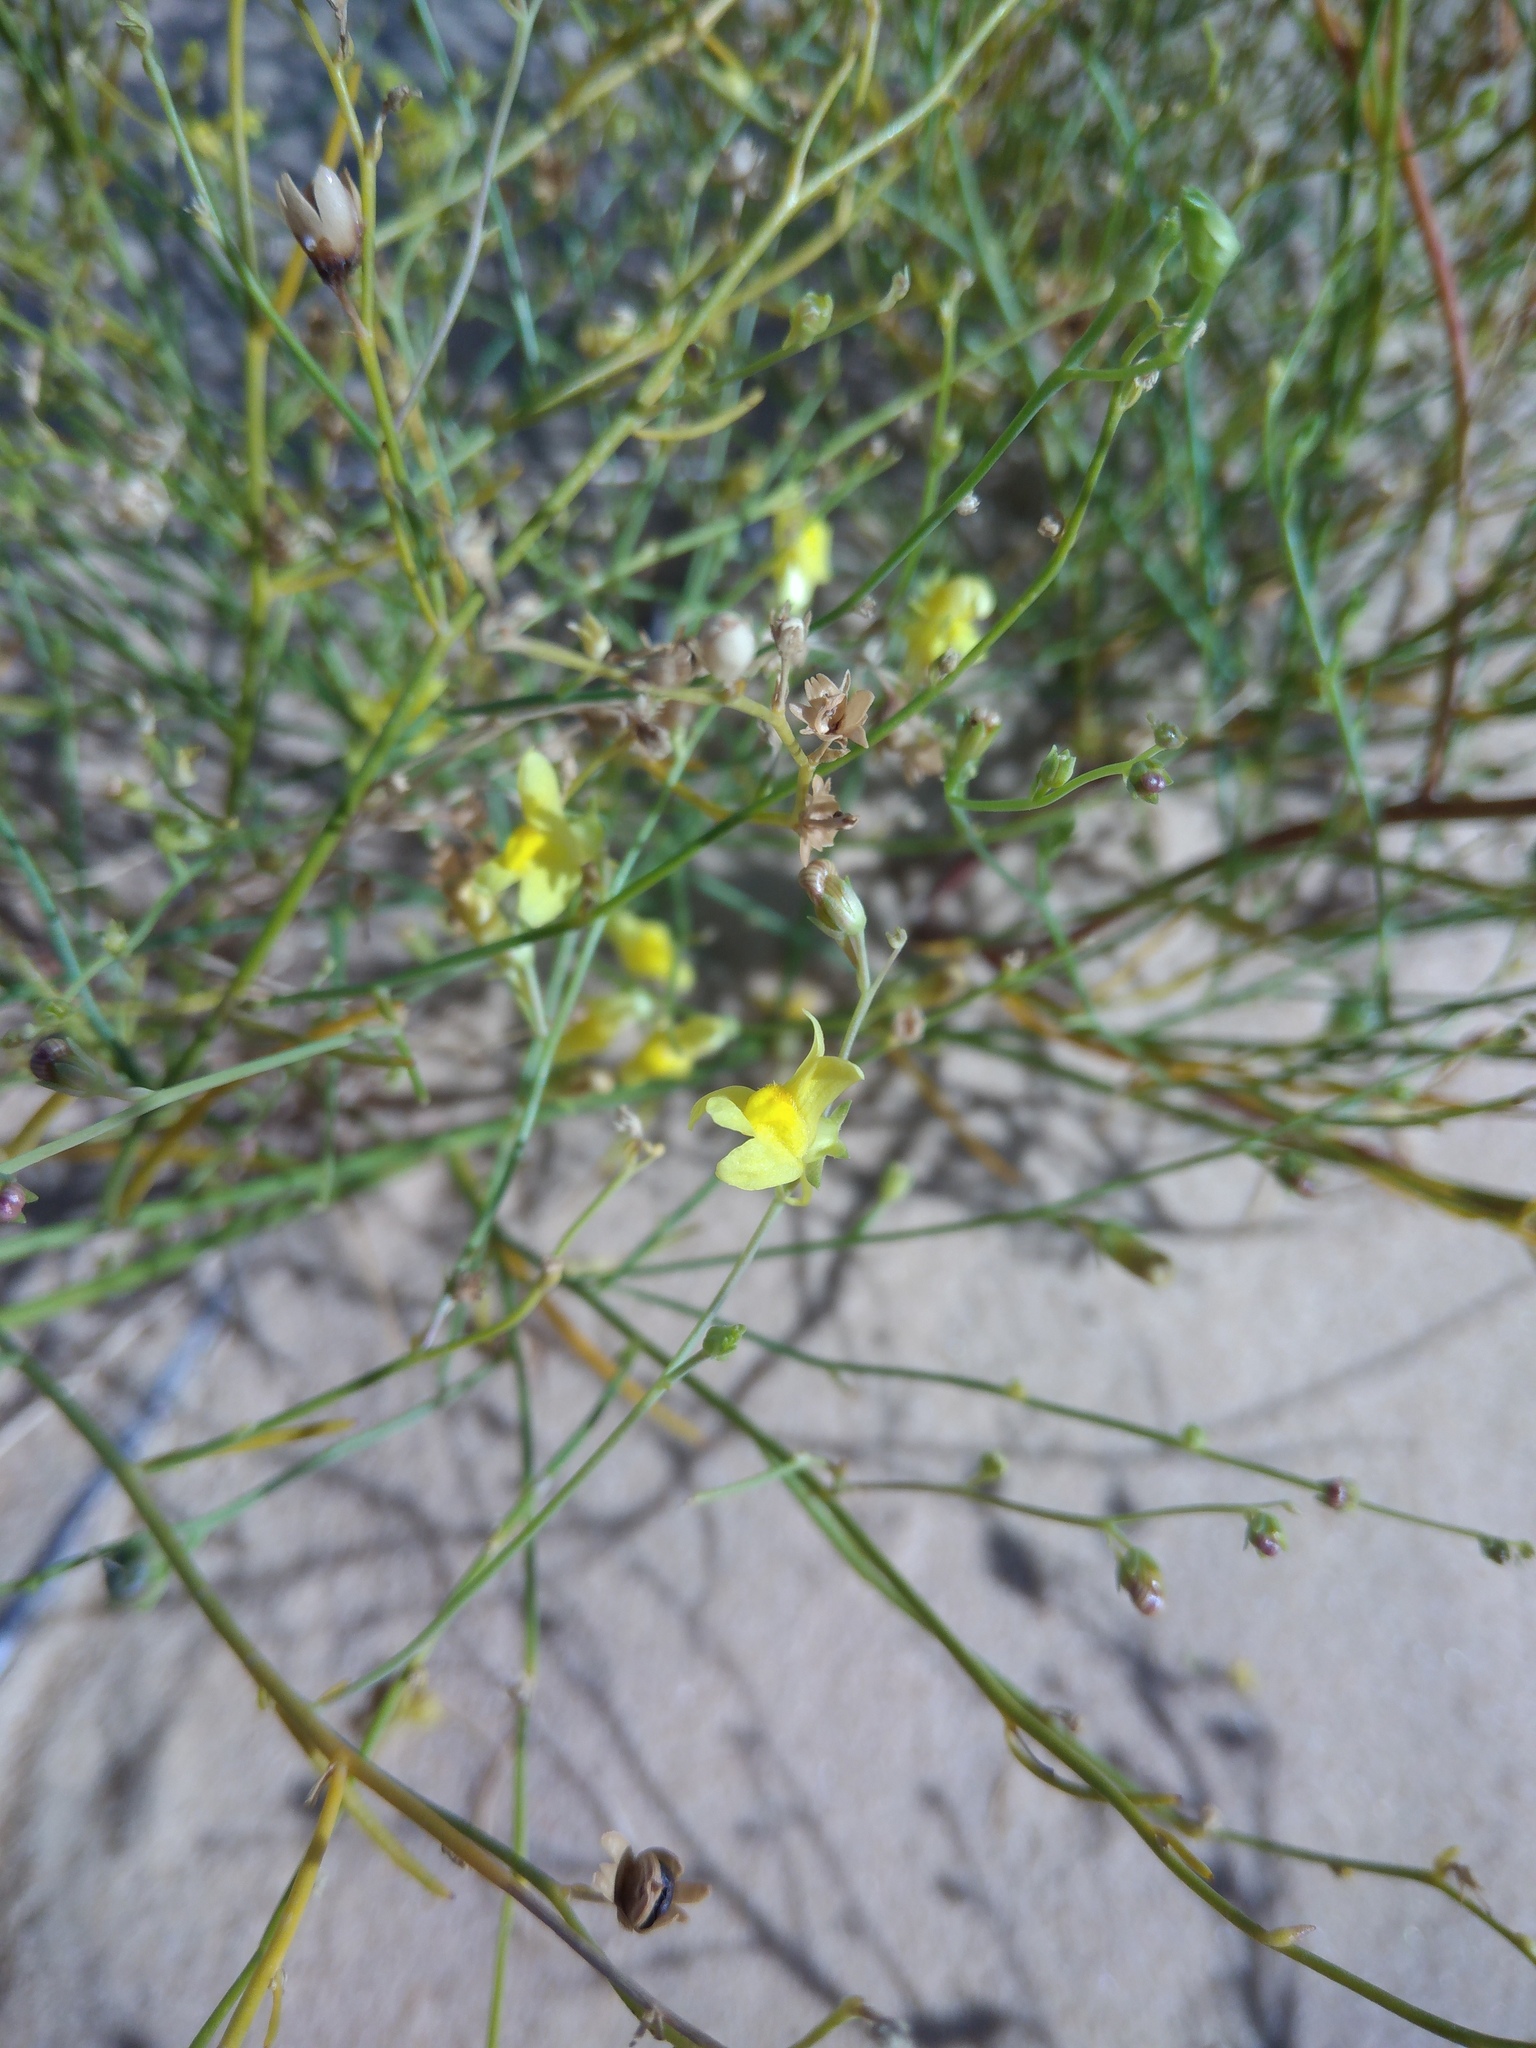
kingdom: Plantae
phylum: Tracheophyta
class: Magnoliopsida
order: Lamiales
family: Plantaginaceae
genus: Linaria
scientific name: Linaria odora
